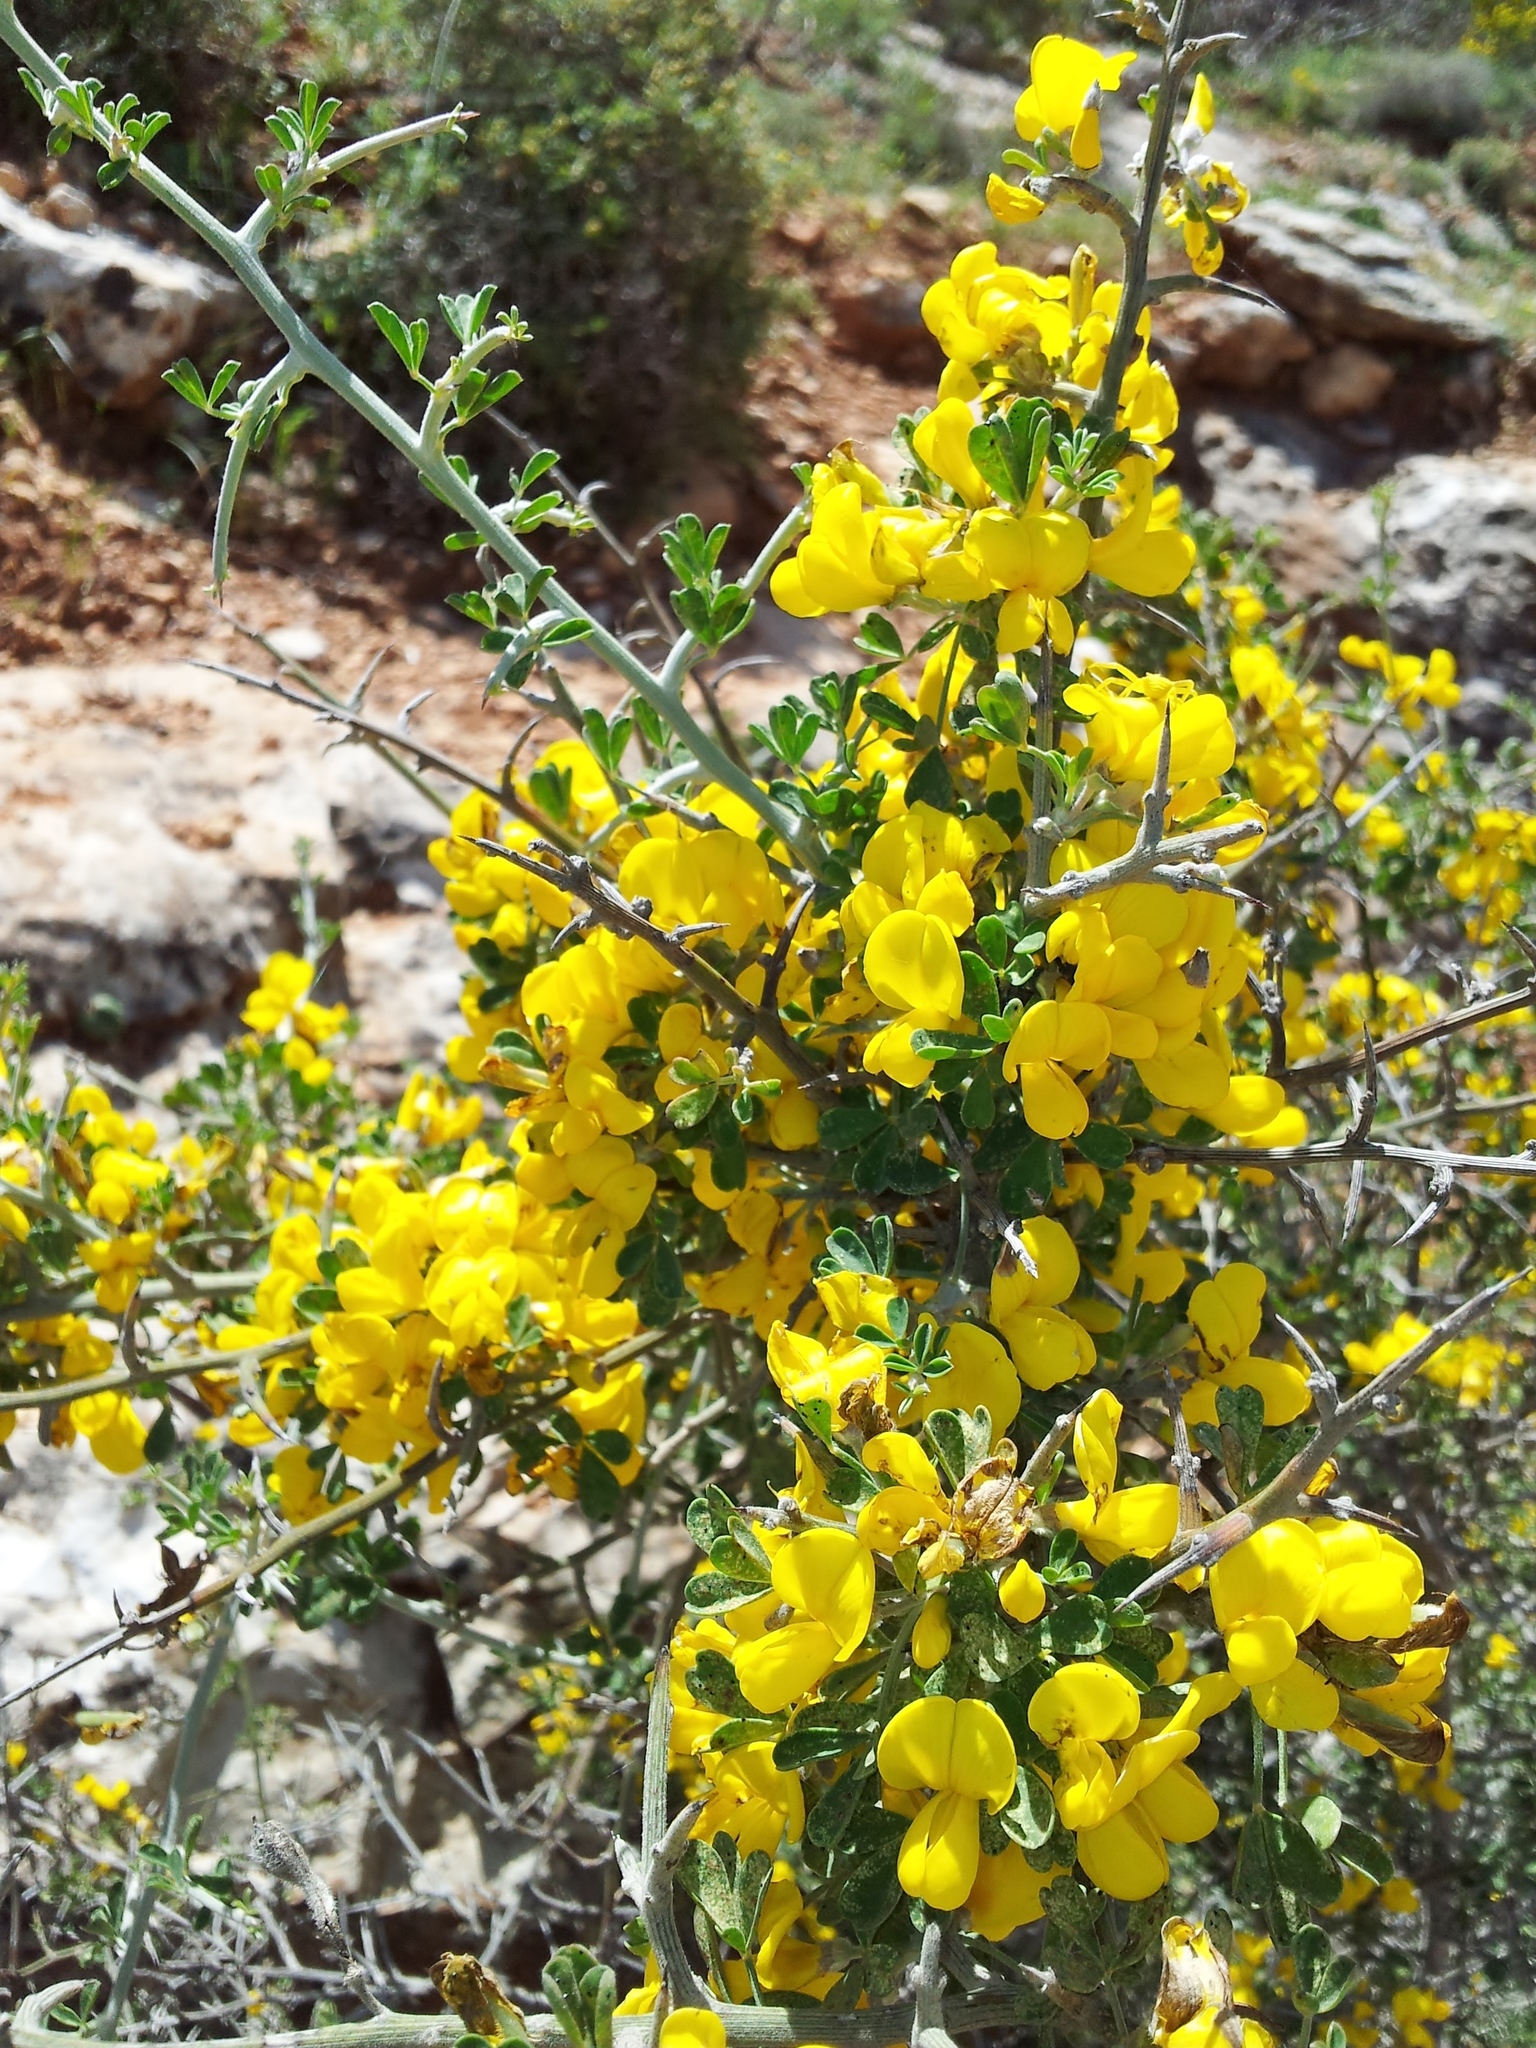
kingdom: Plantae
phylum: Tracheophyta
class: Magnoliopsida
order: Fabales
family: Fabaceae
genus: Calicotome
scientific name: Calicotome villosa
